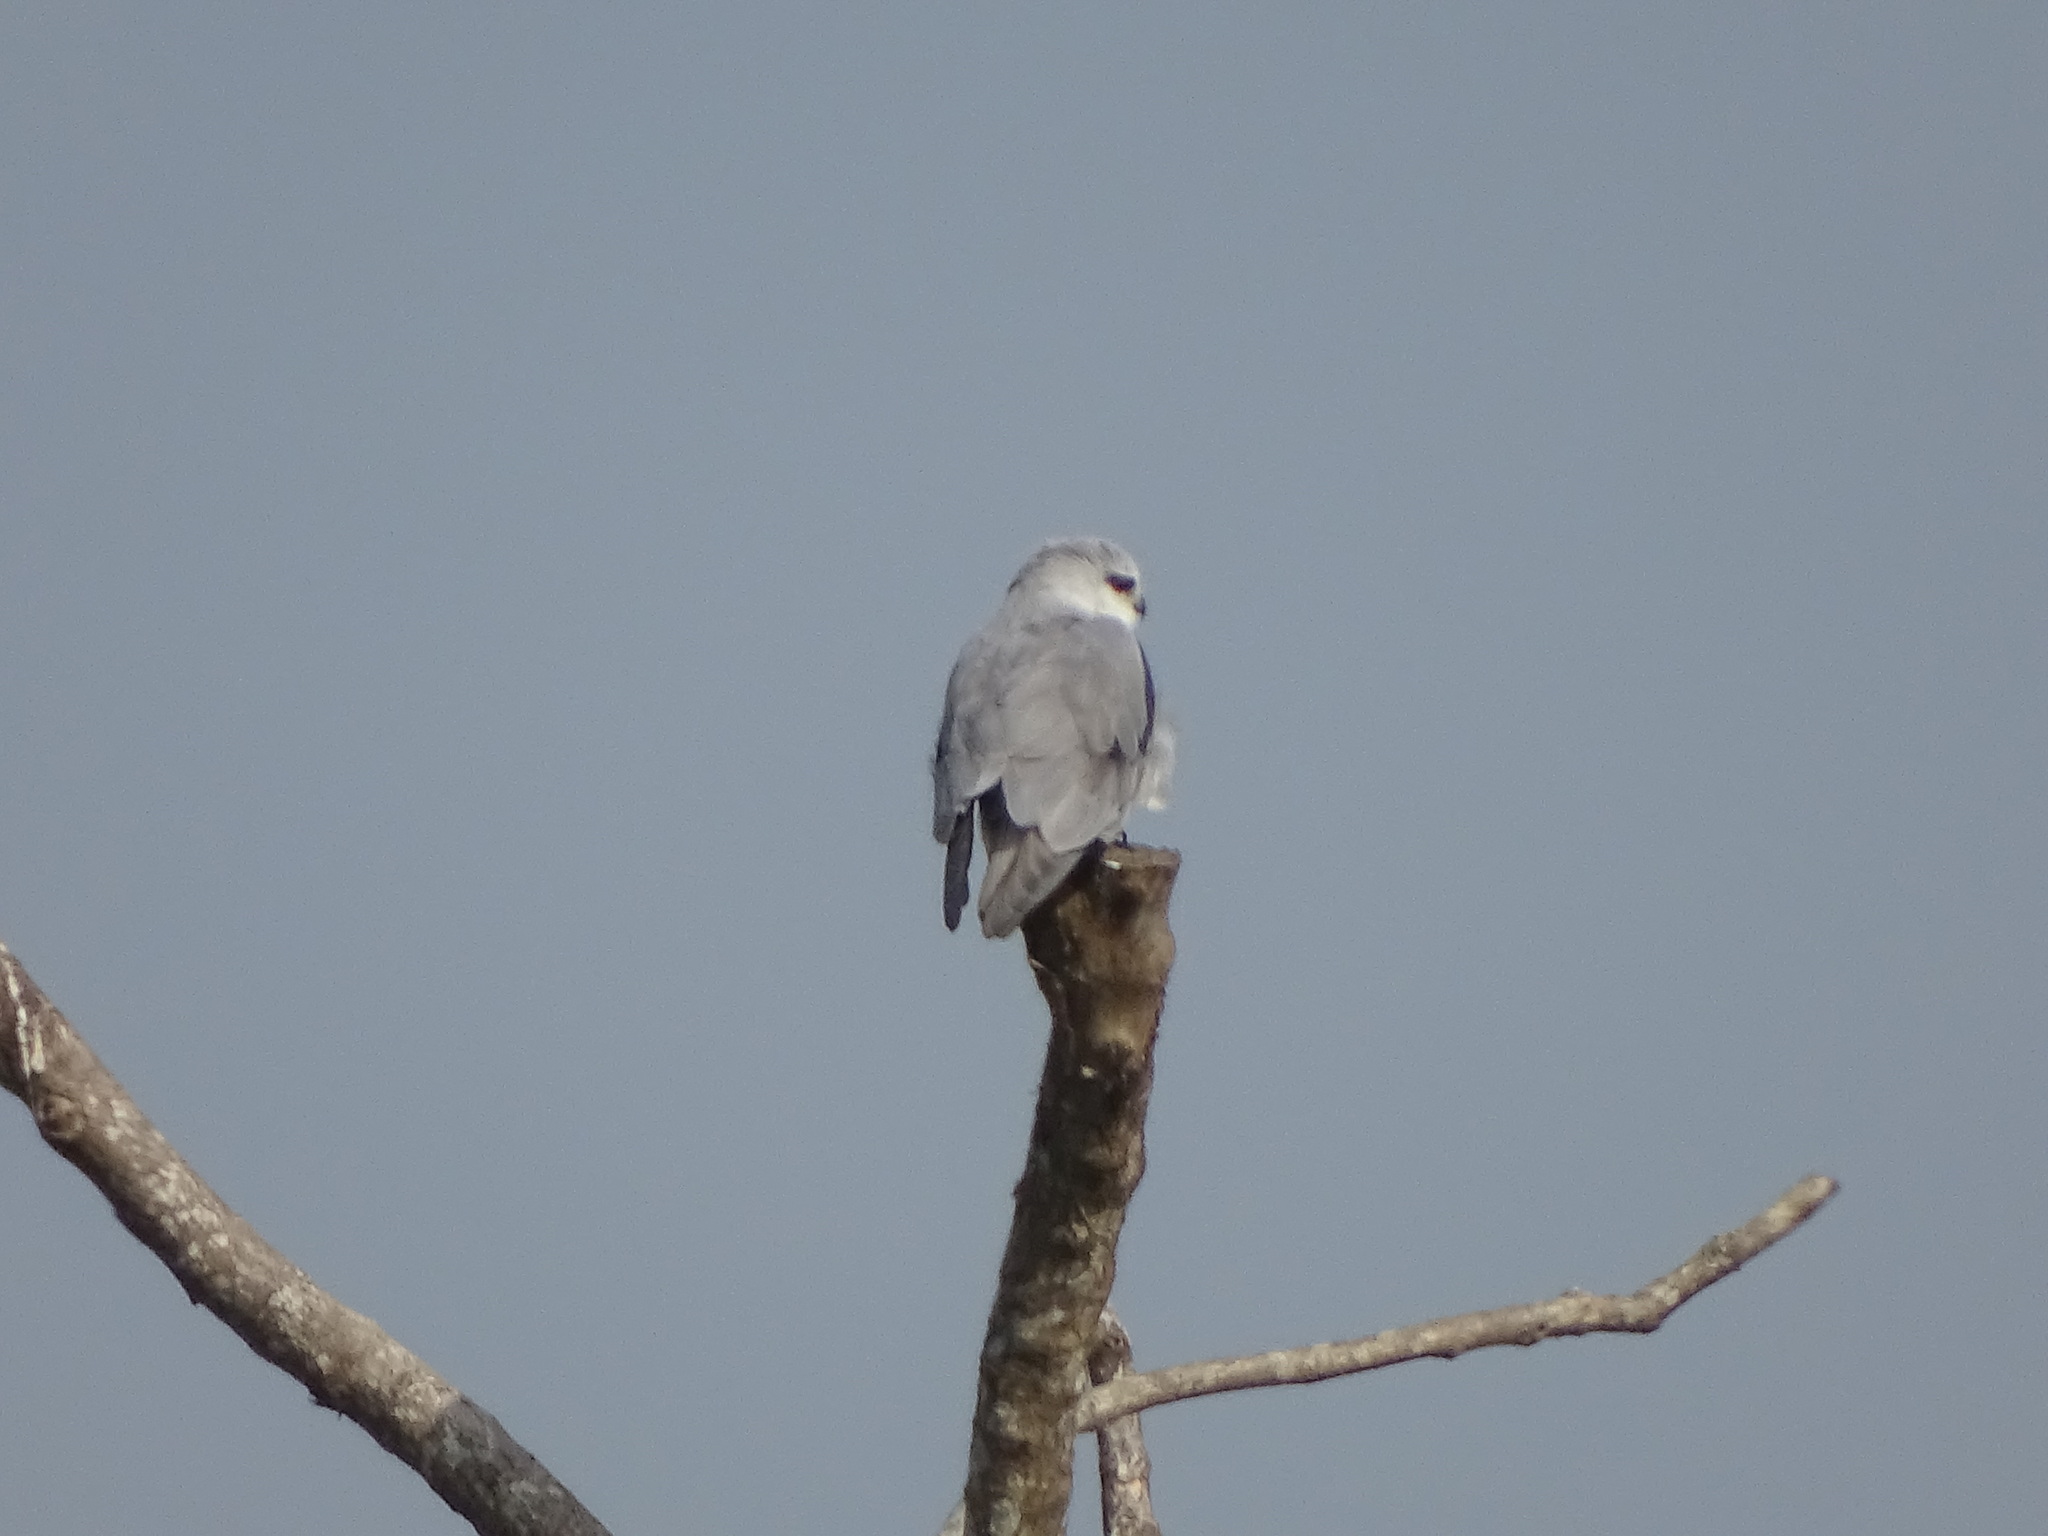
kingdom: Animalia
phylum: Chordata
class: Aves
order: Accipitriformes
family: Accipitridae
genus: Elanus
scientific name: Elanus caeruleus
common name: Black-winged kite
